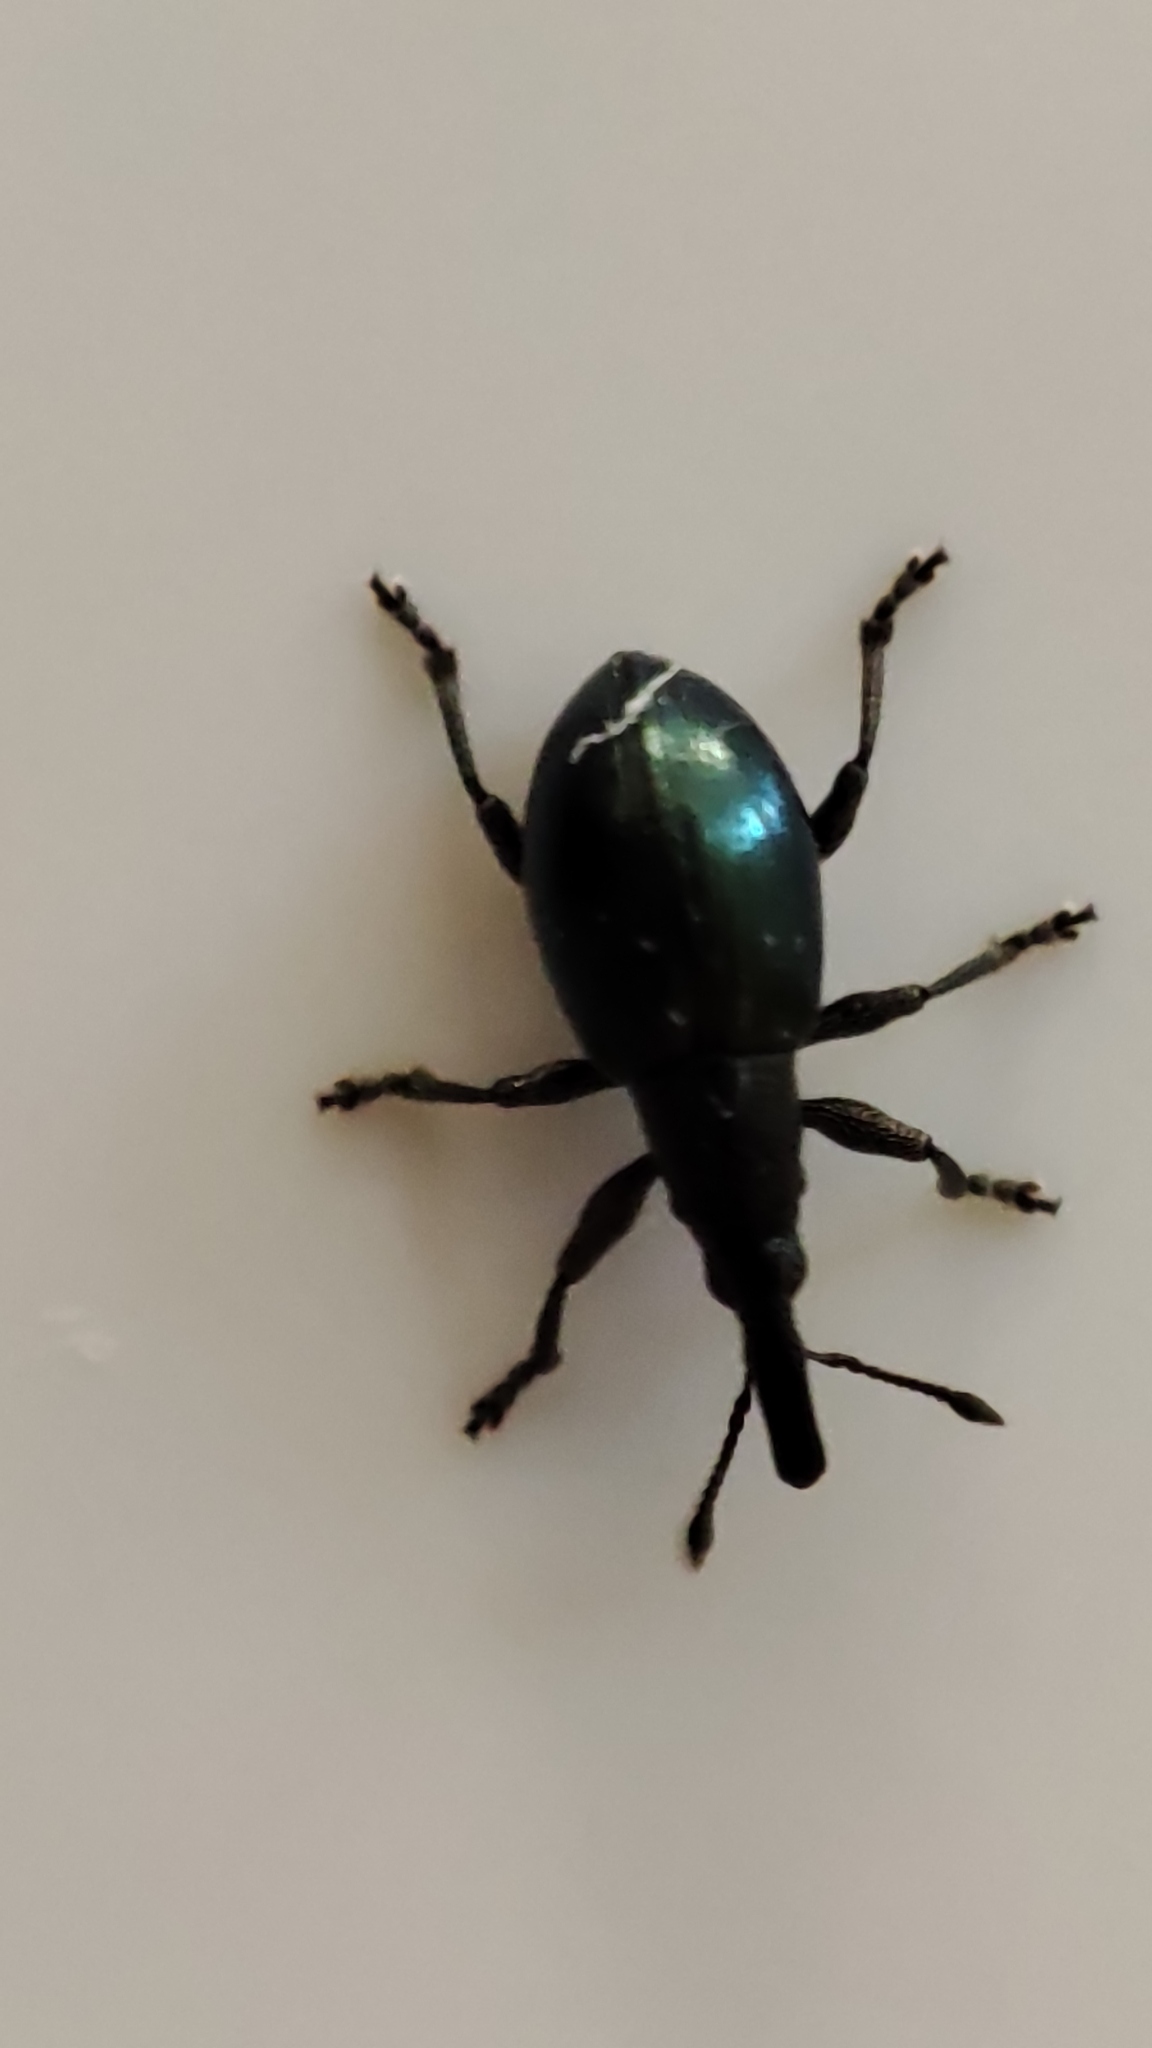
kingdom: Animalia
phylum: Arthropoda
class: Insecta
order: Coleoptera
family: Curculionidae
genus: Sphenomorpha
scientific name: Sphenomorpha aenea
